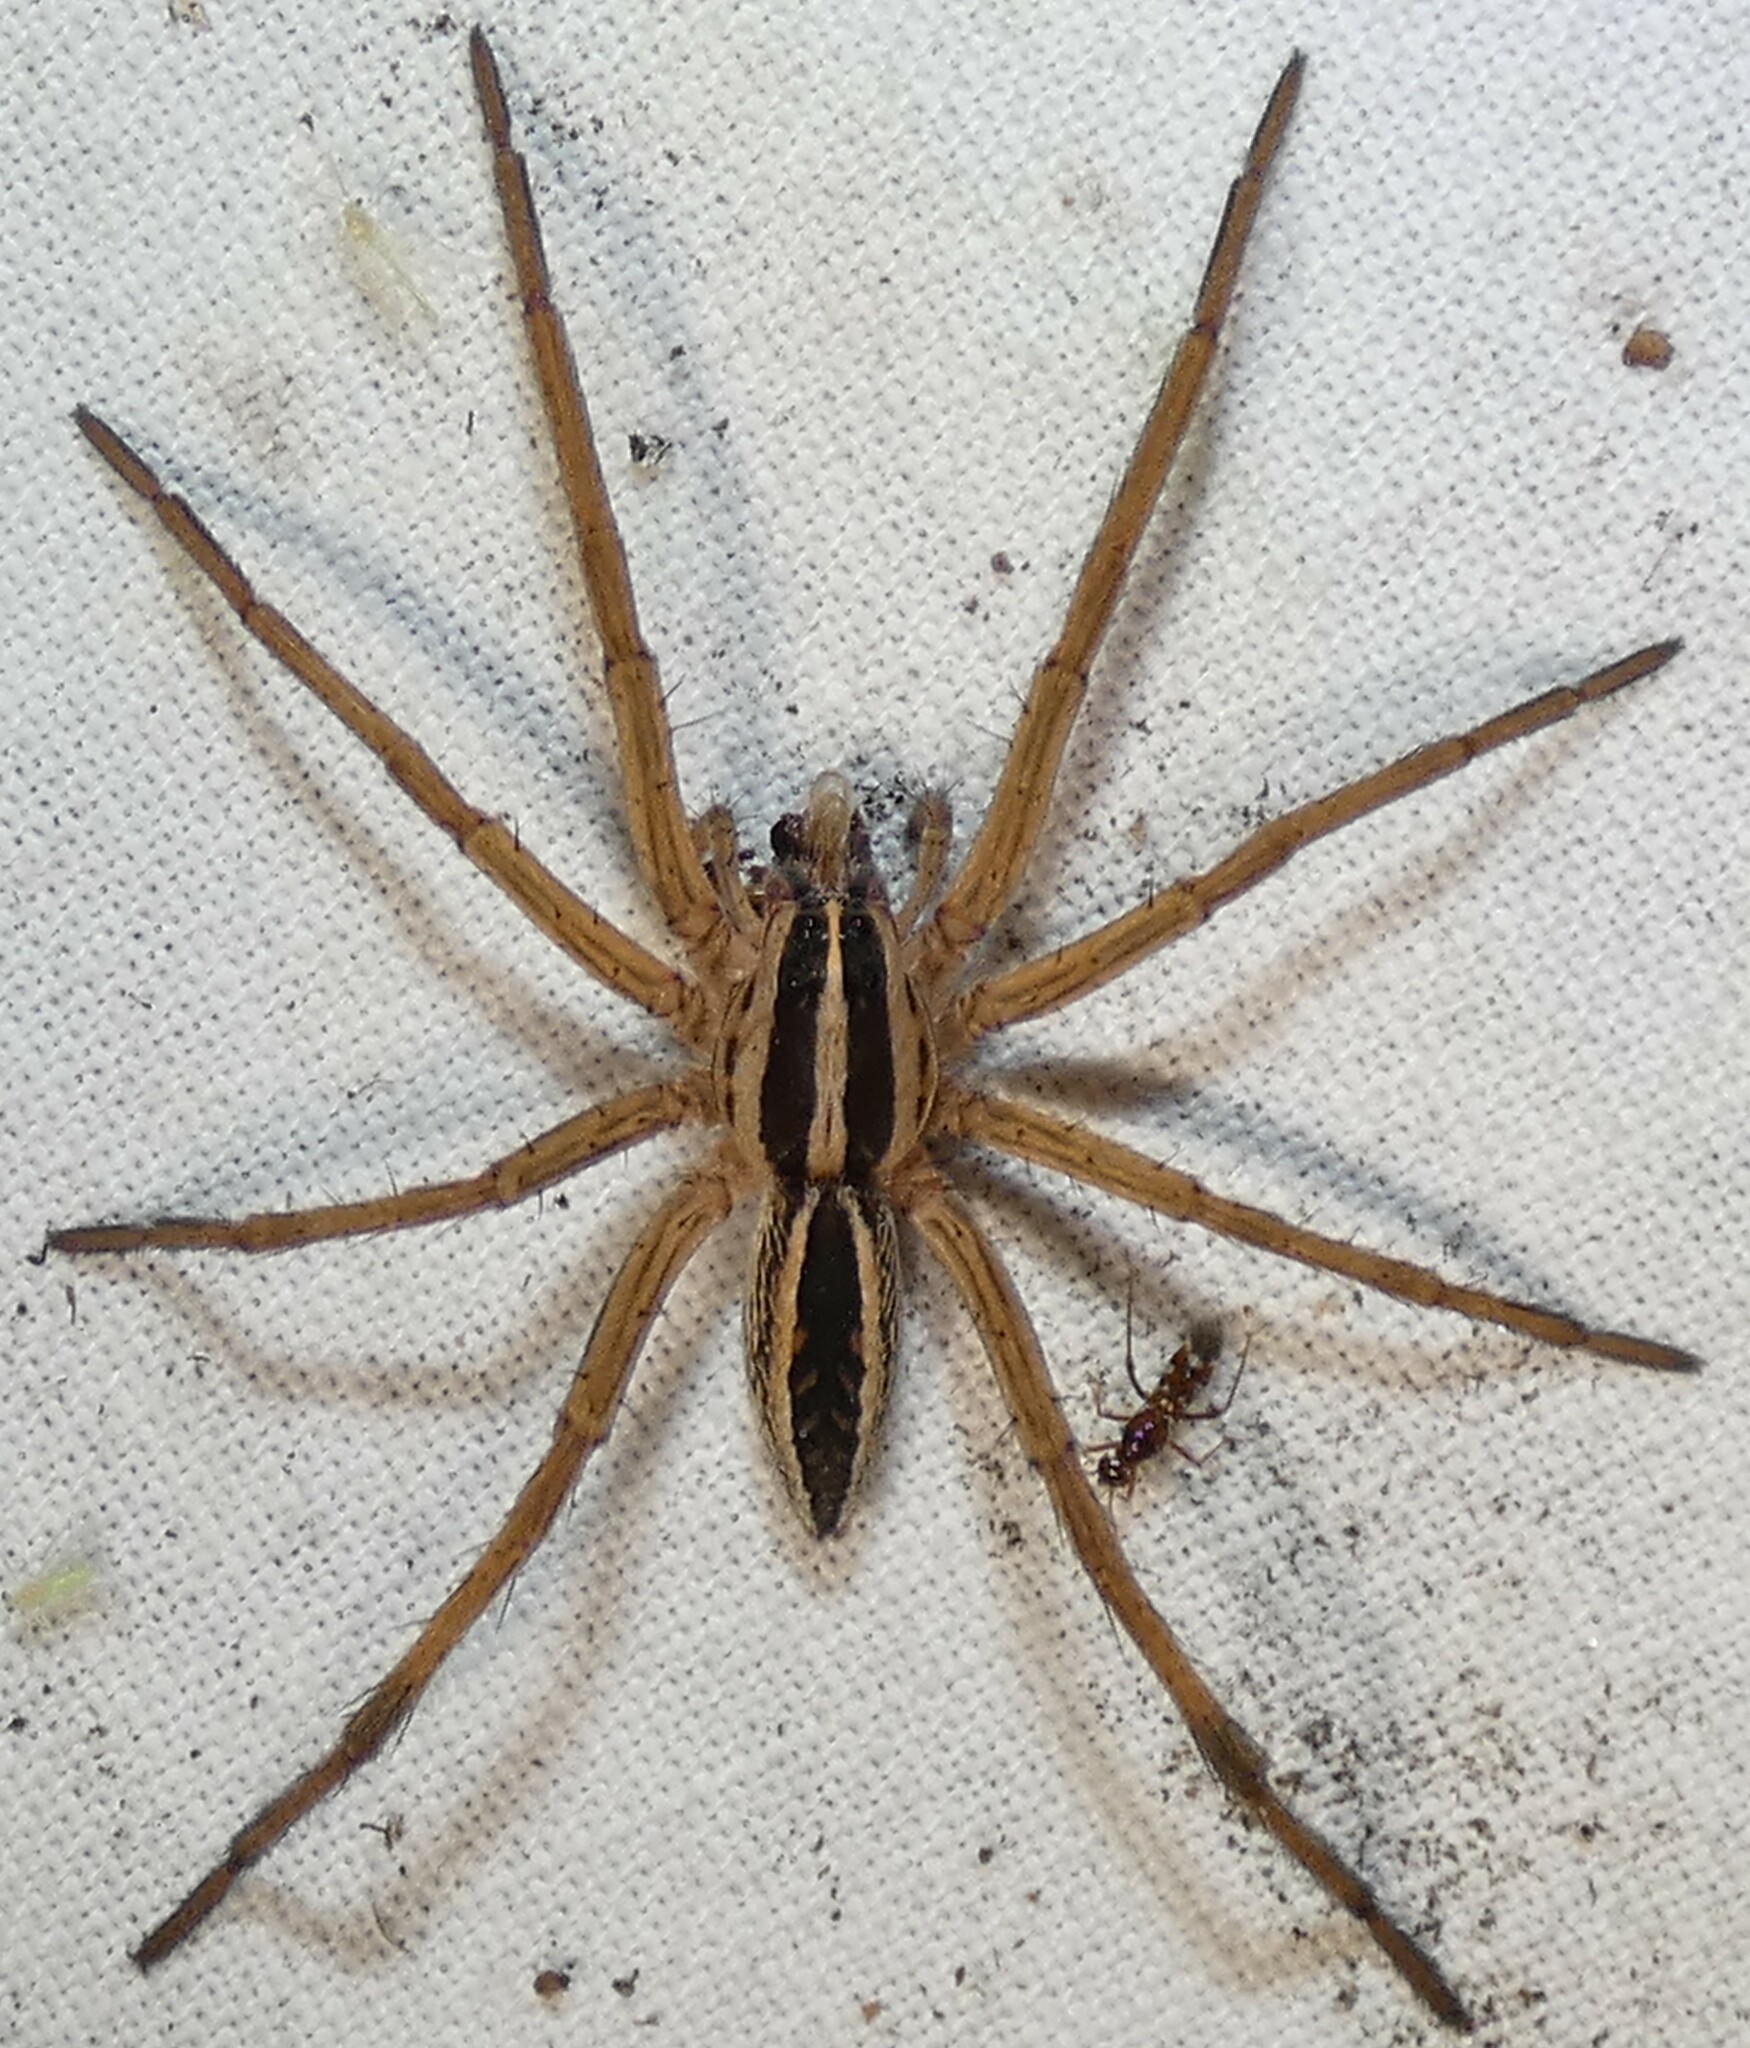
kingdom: Animalia
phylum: Arthropoda
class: Arachnida
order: Araneae
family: Lycosidae
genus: Rabidosa
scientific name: Rabidosa rabida
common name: Rabid wolf spider
